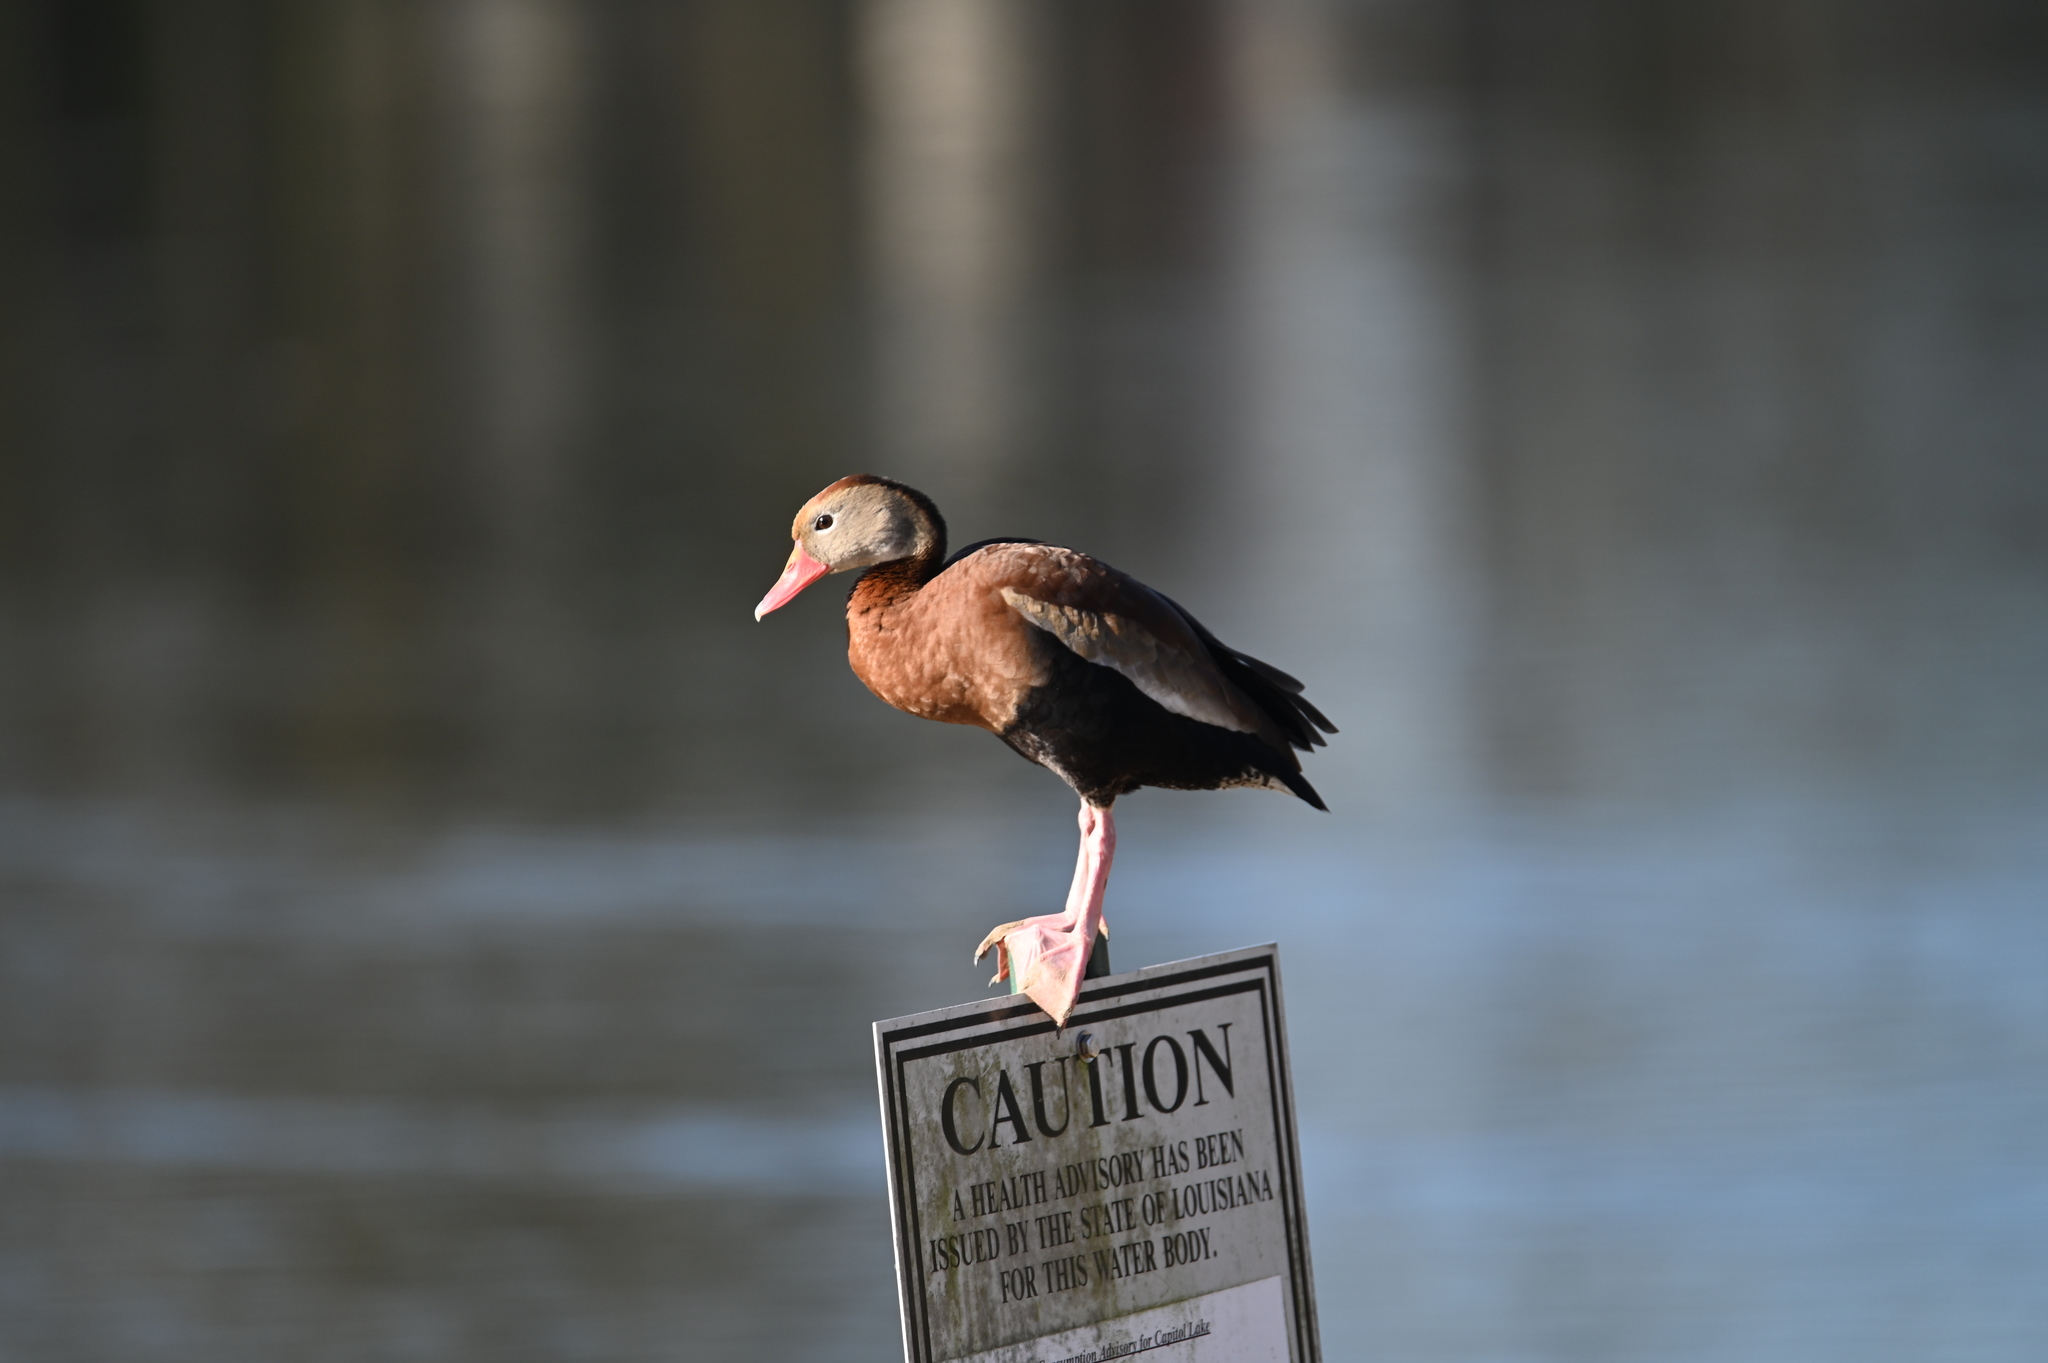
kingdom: Animalia
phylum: Chordata
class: Aves
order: Anseriformes
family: Anatidae
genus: Dendrocygna
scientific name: Dendrocygna autumnalis
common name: Black-bellied whistling duck
